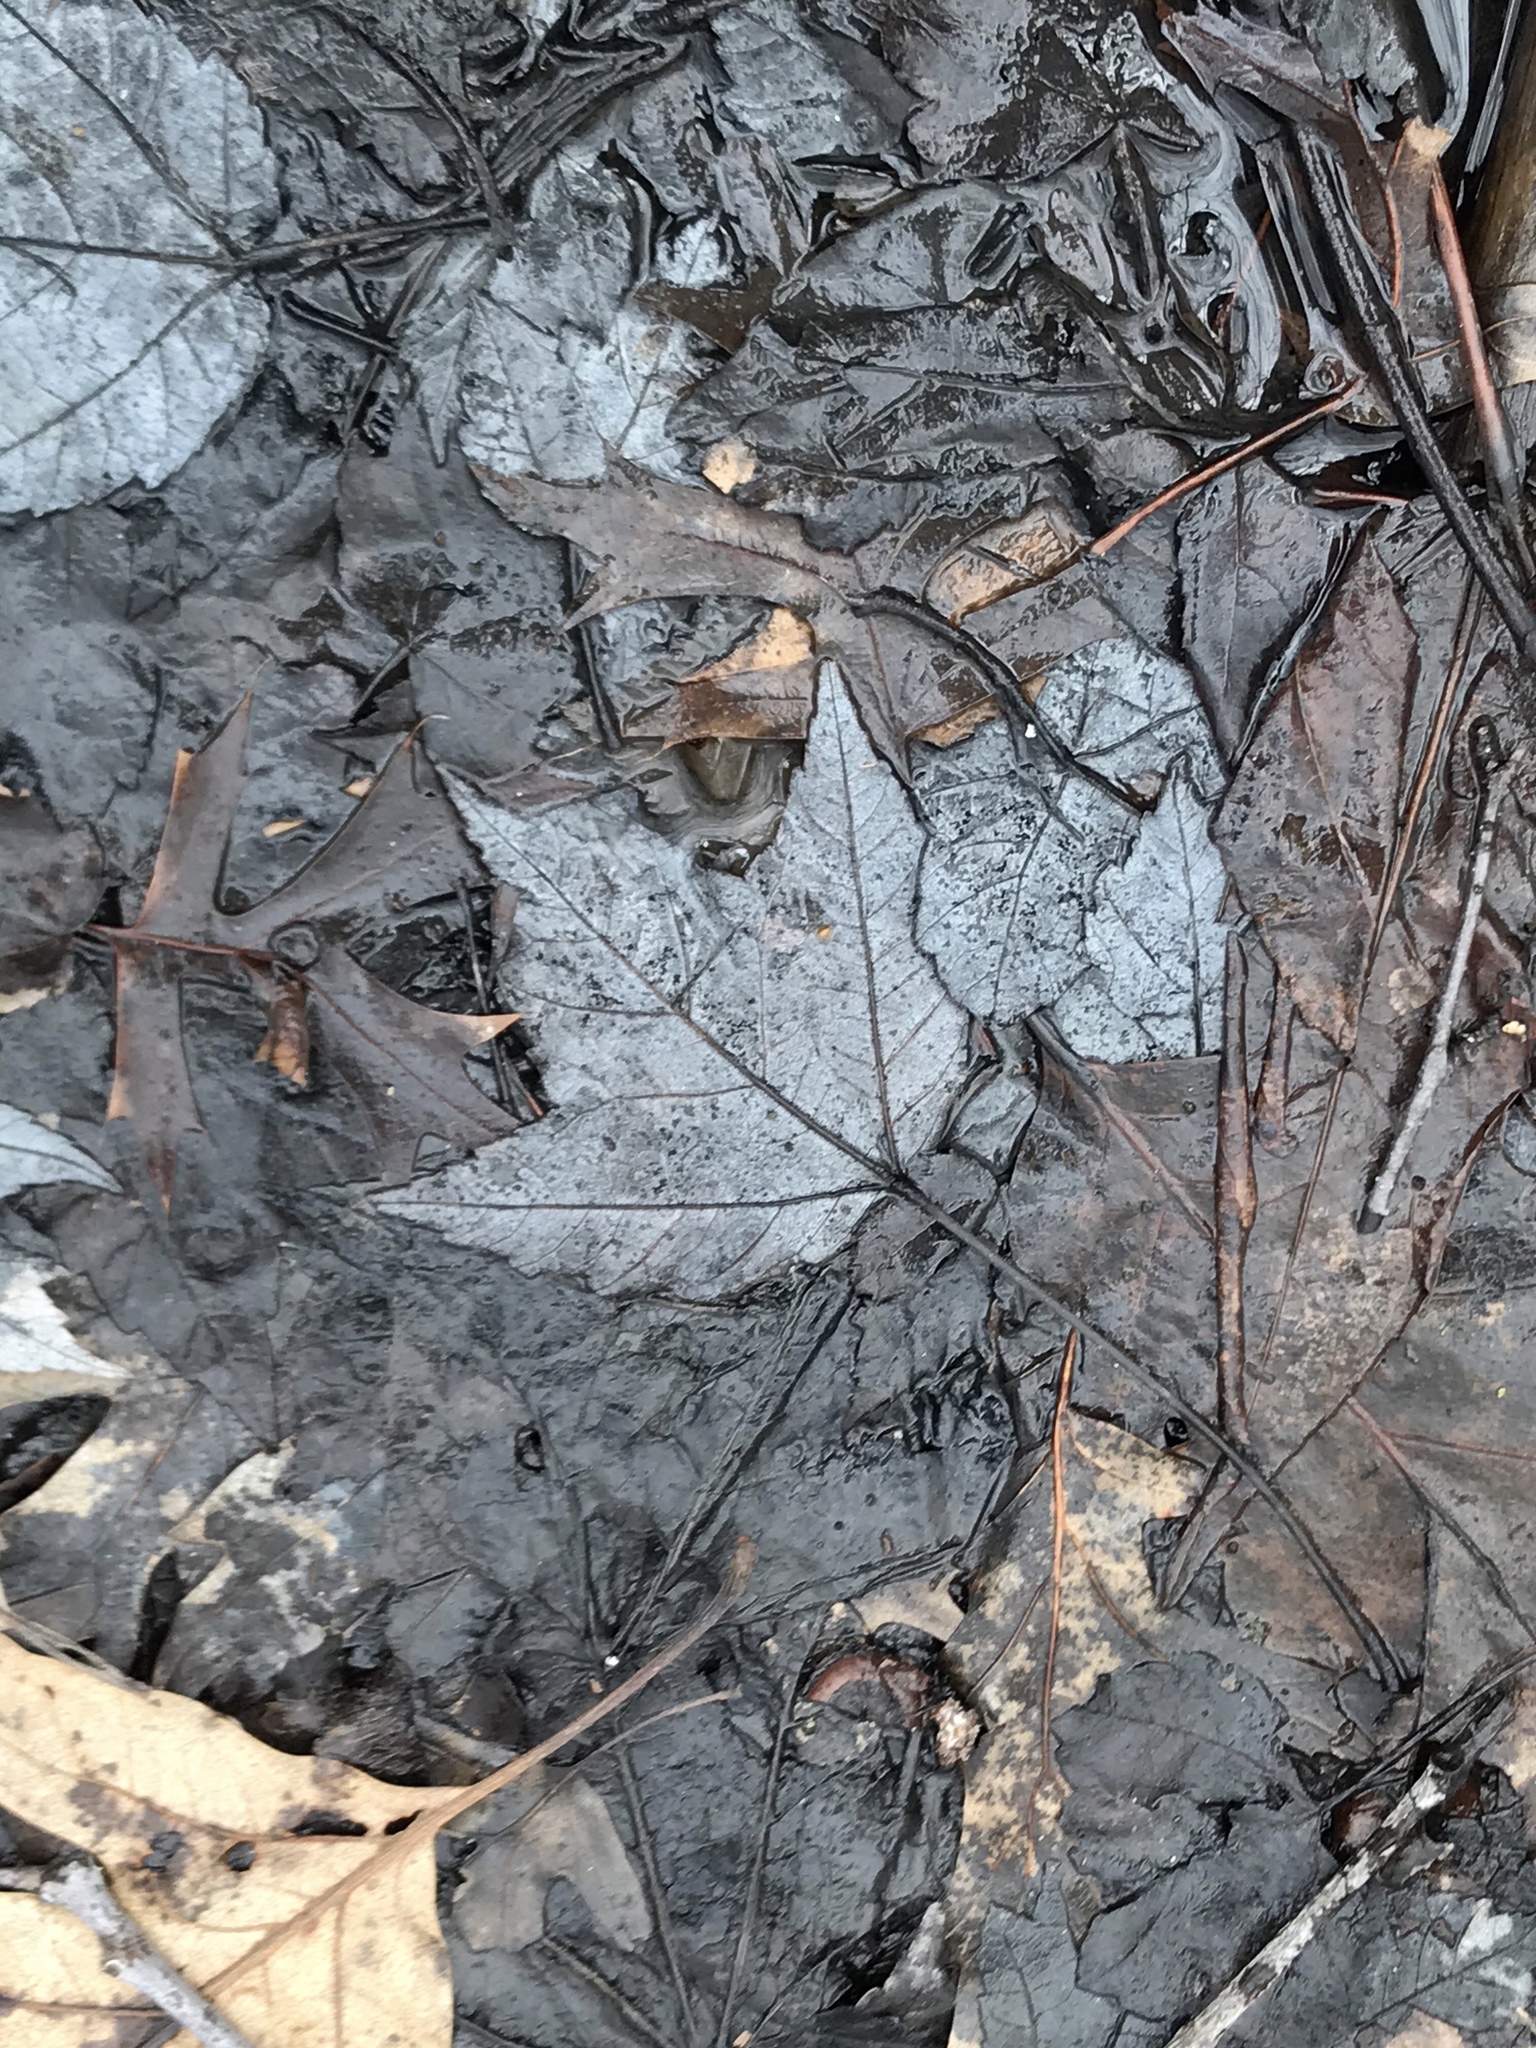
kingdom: Plantae
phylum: Tracheophyta
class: Magnoliopsida
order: Sapindales
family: Sapindaceae
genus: Acer
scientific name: Acer rubrum
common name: Red maple
